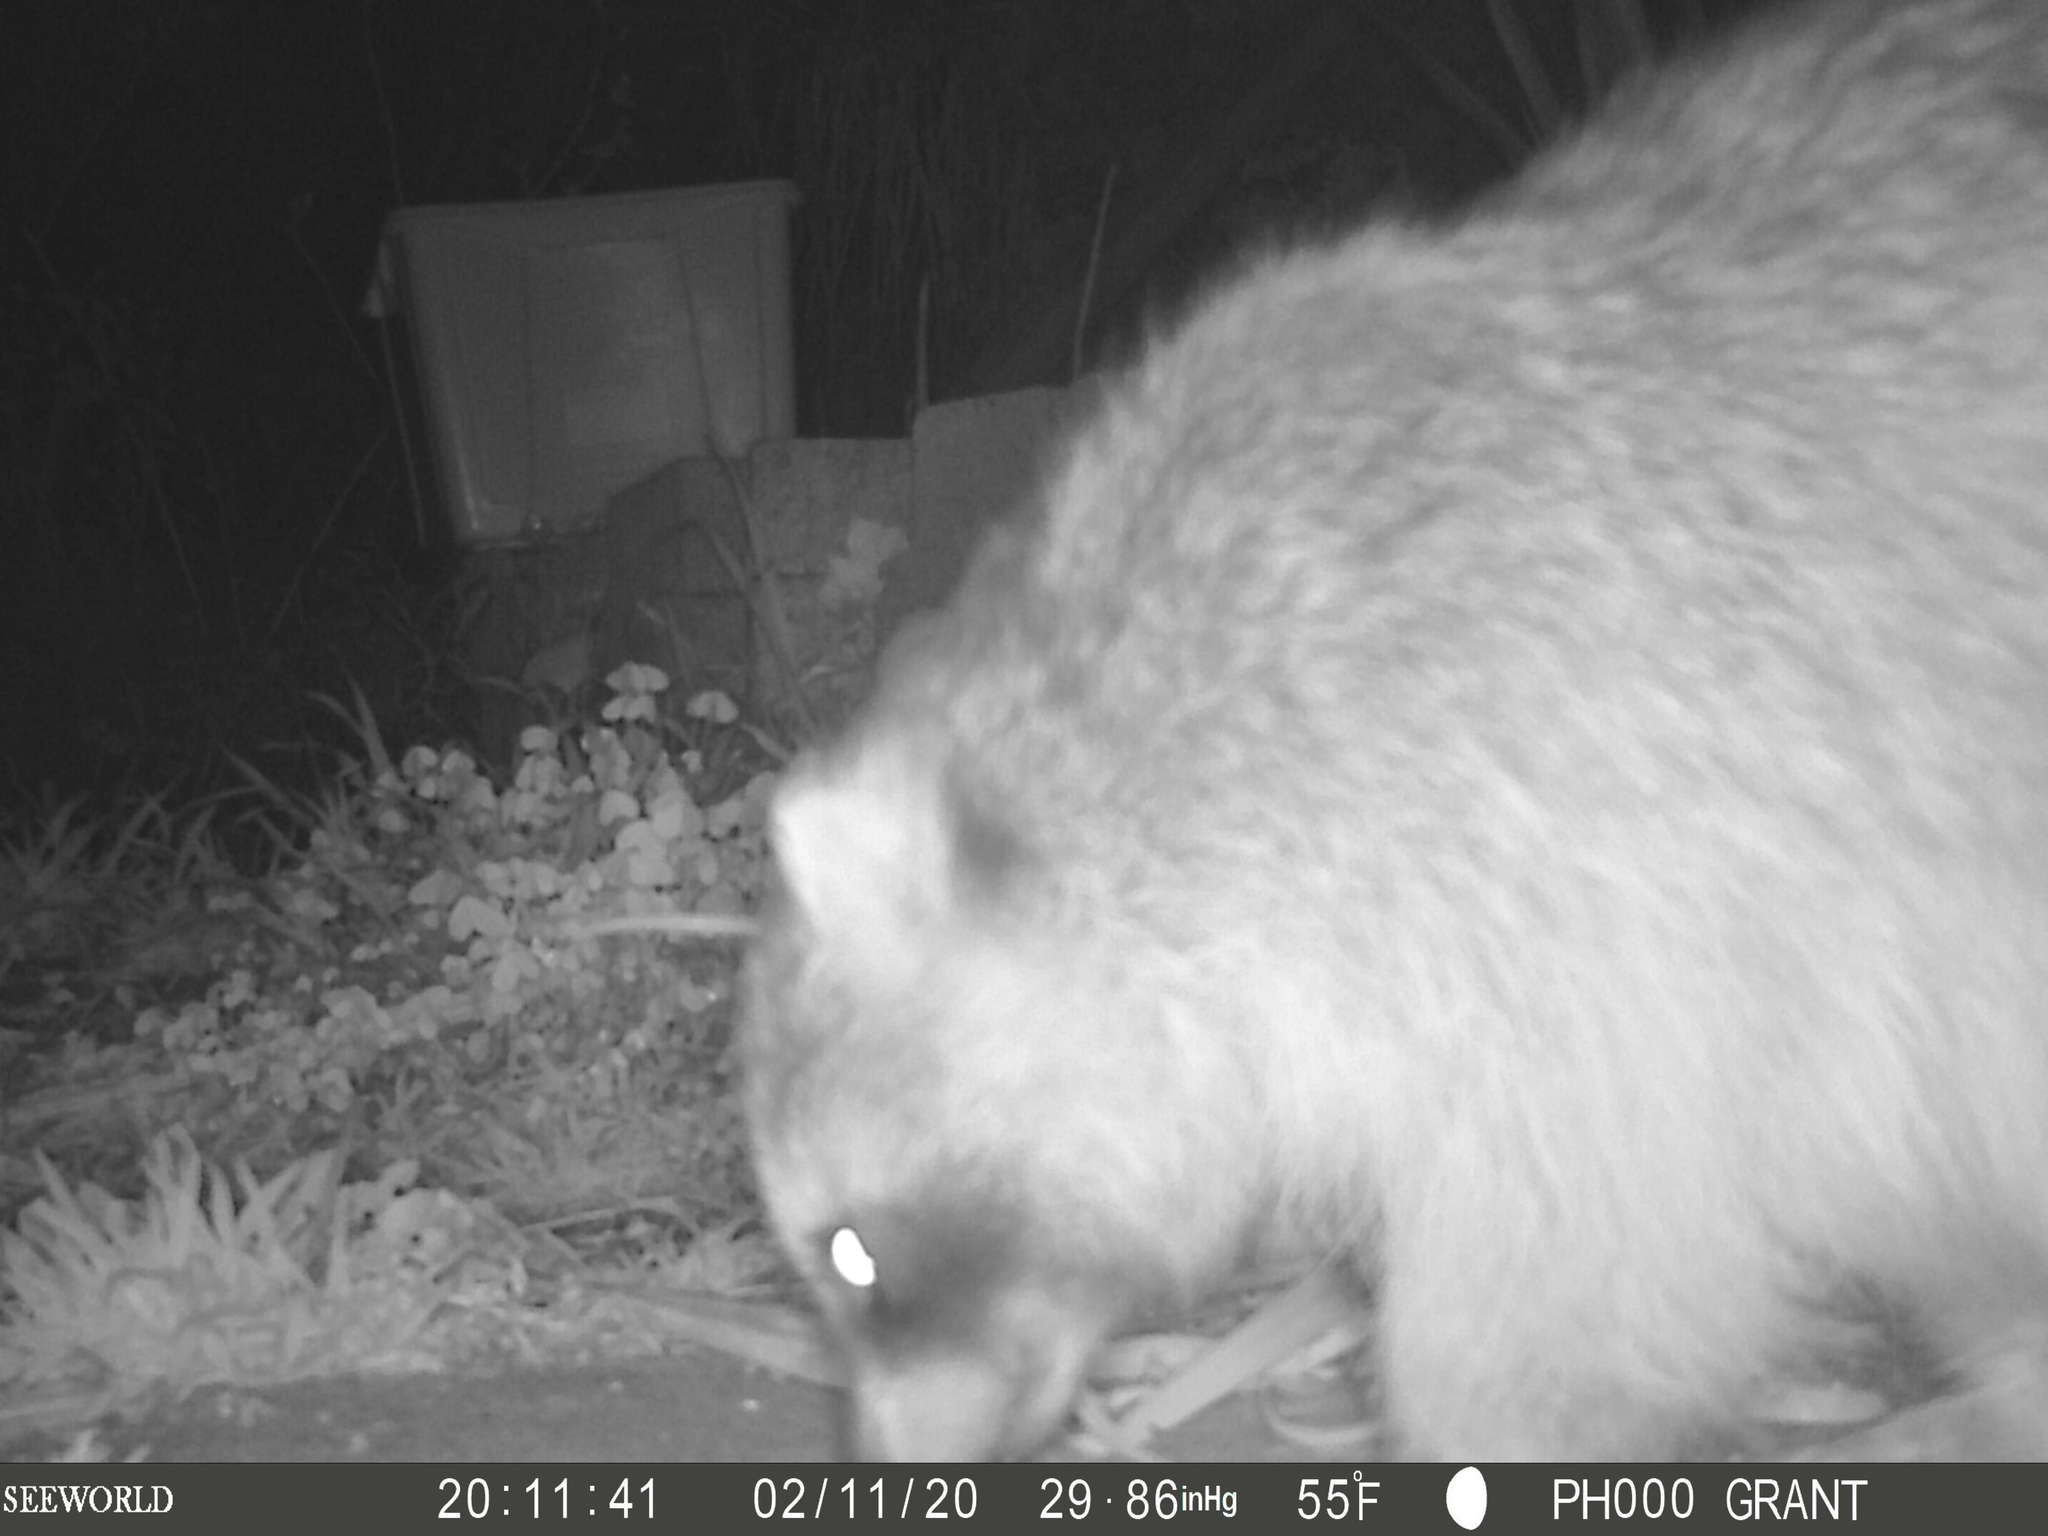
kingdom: Animalia
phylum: Chordata
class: Mammalia
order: Carnivora
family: Procyonidae
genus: Procyon
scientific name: Procyon lotor
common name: Raccoon
